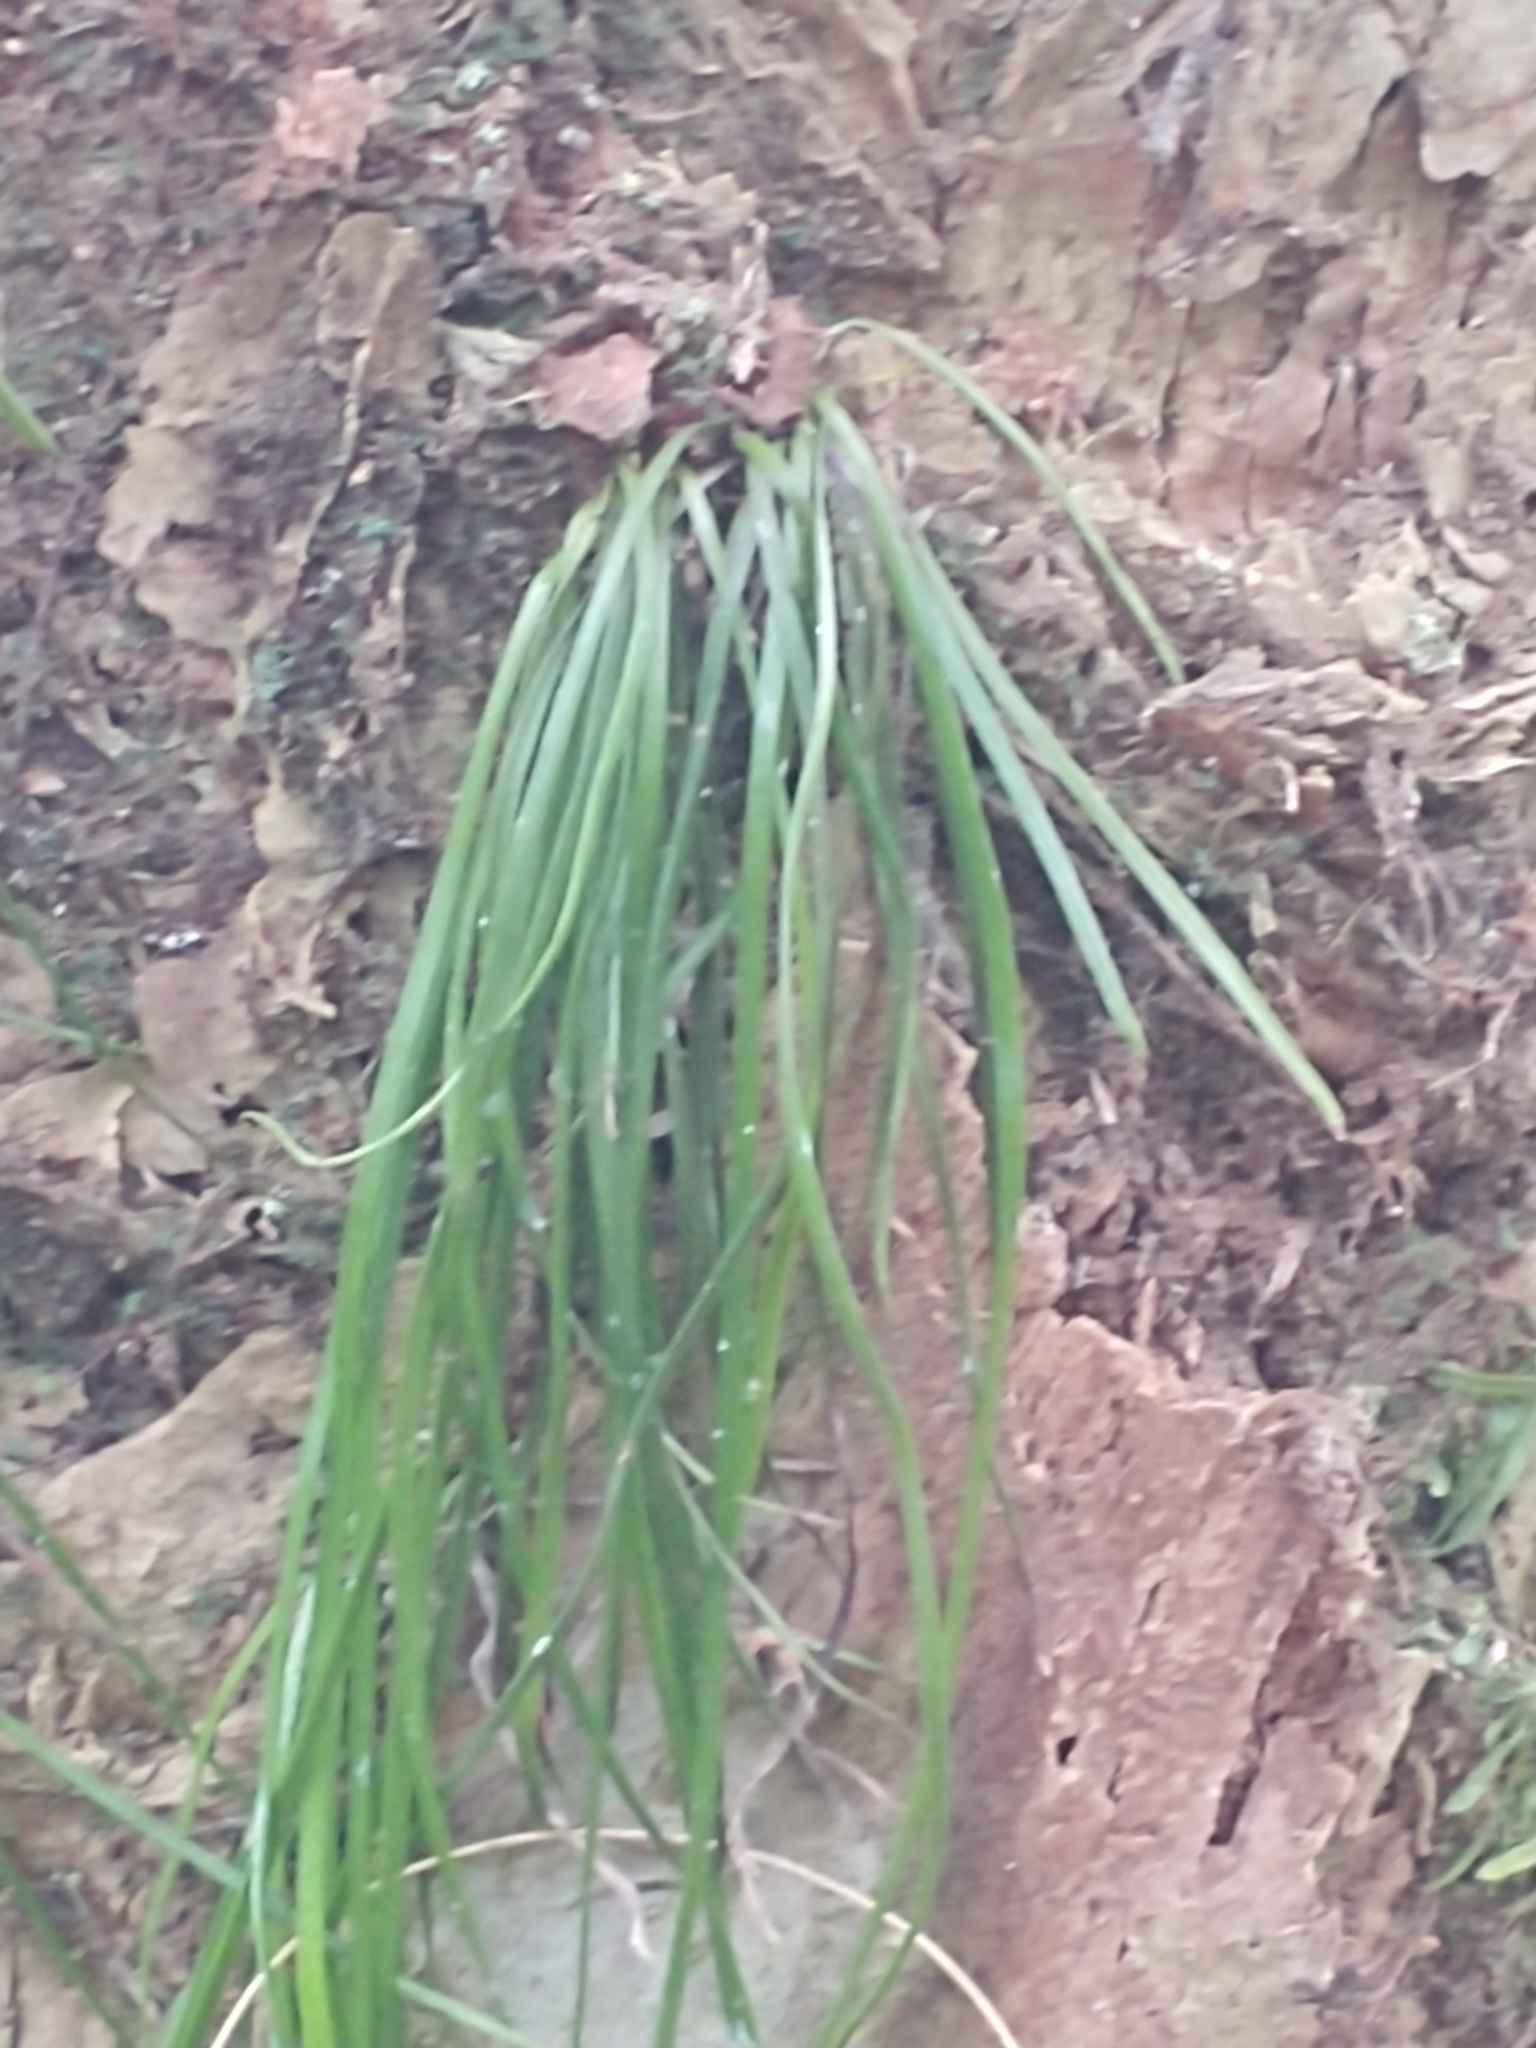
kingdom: Plantae
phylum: Tracheophyta
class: Polypodiopsida
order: Polypodiales
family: Pteridaceae
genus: Vittaria
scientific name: Vittaria lineata
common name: Shoestring fern
